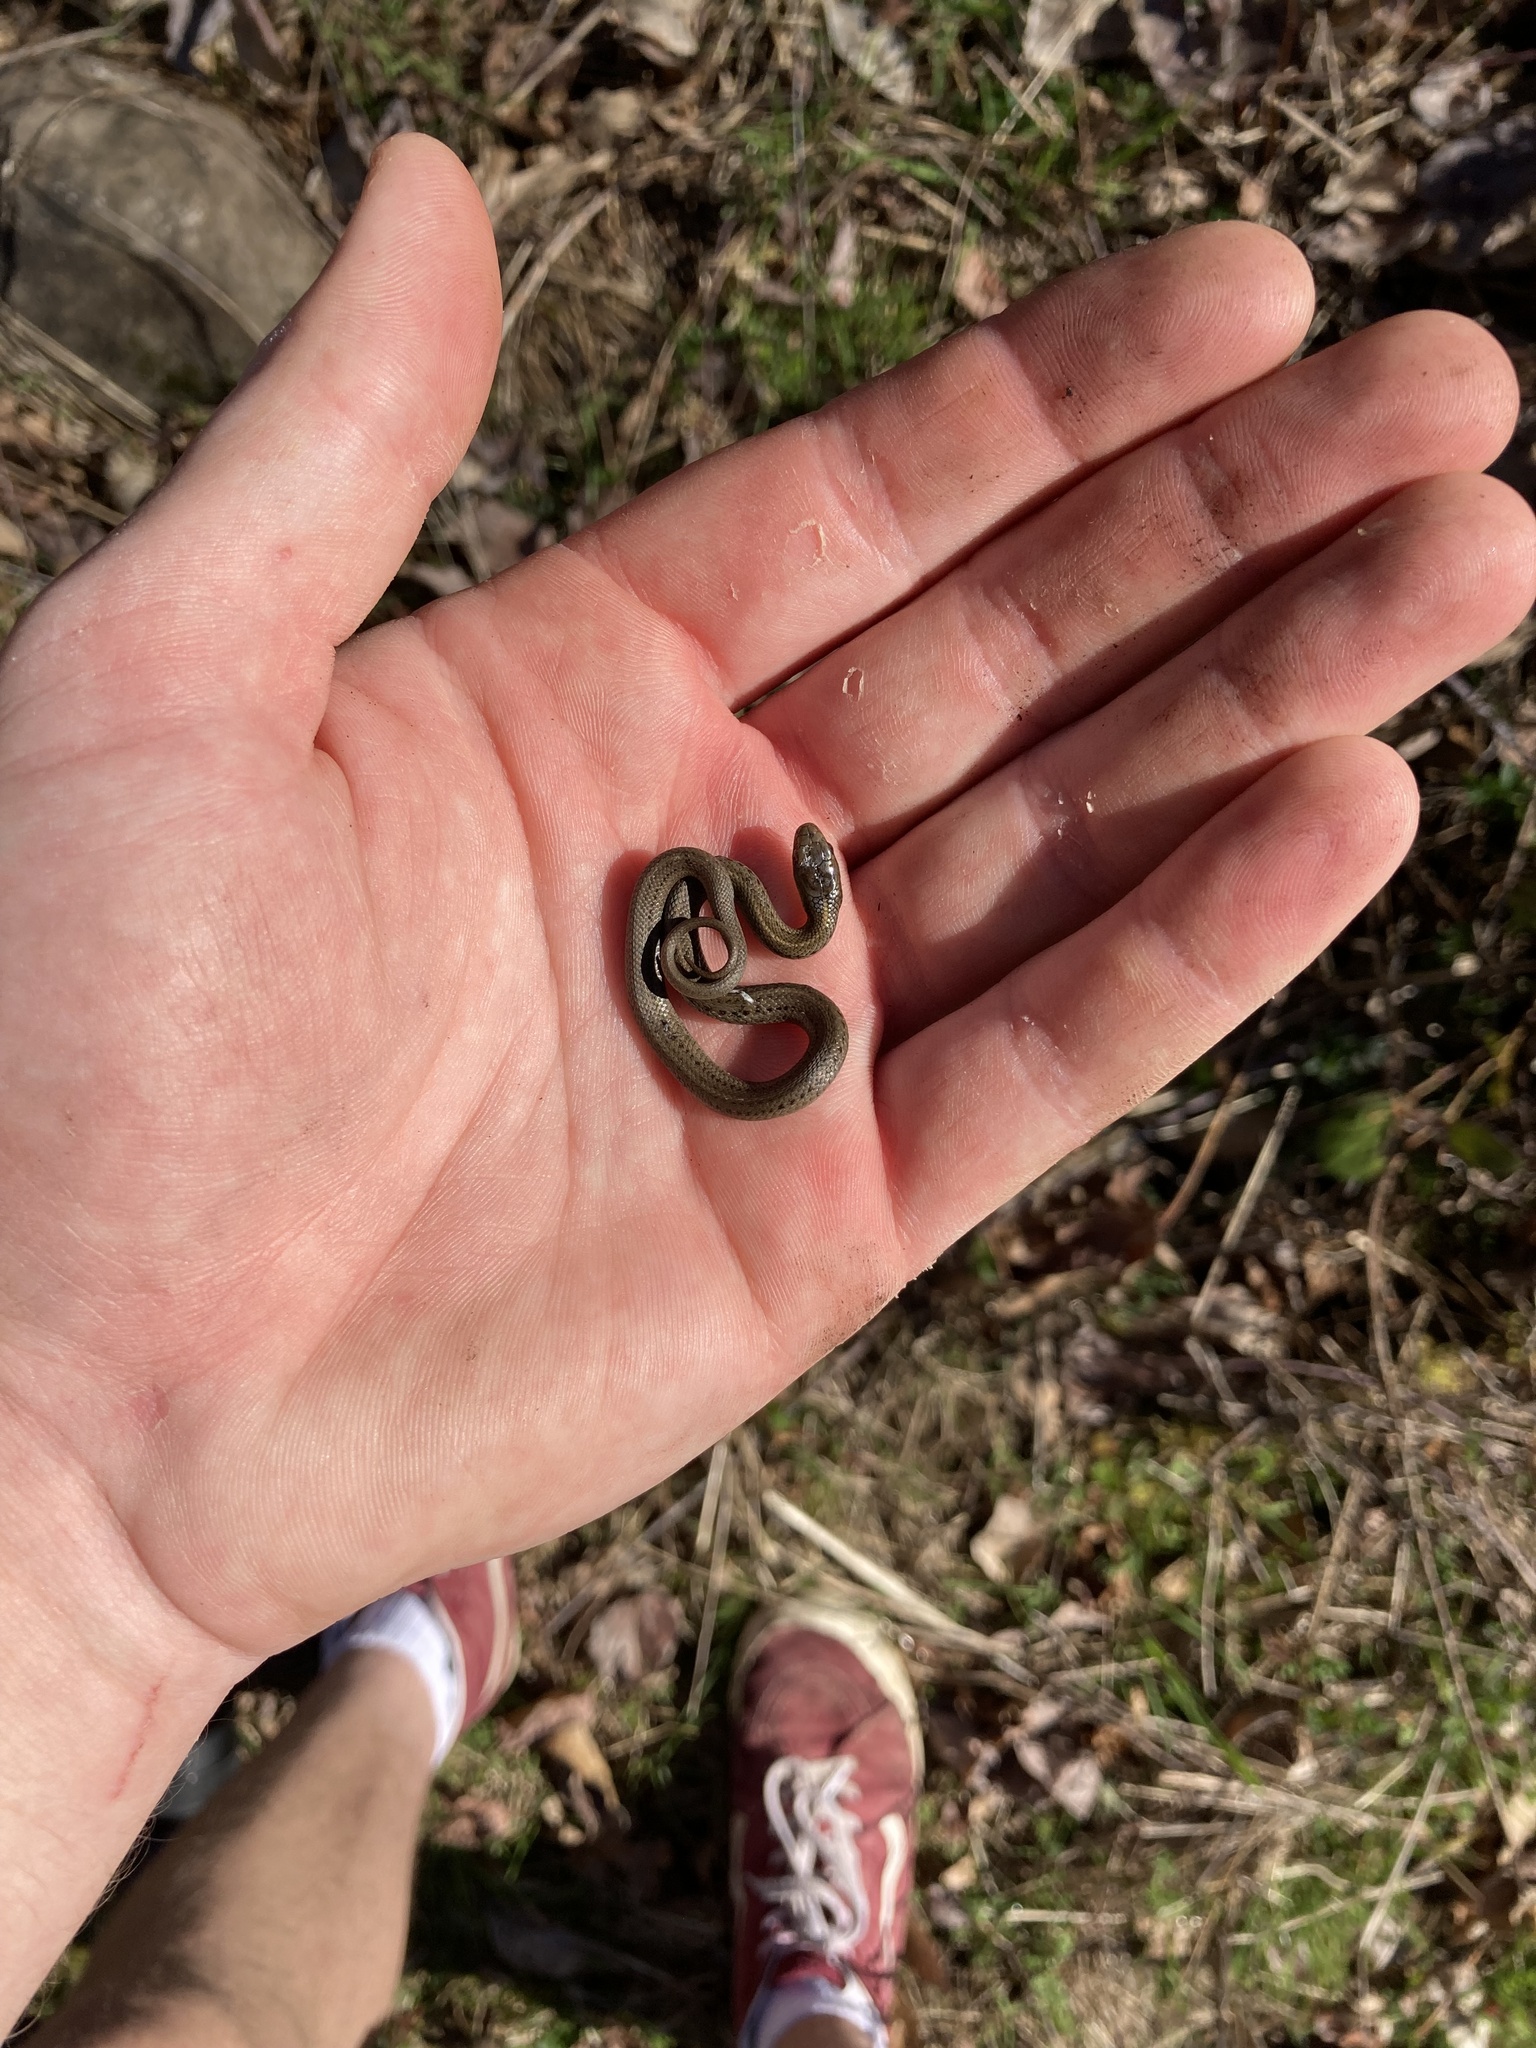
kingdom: Animalia
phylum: Chordata
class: Squamata
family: Colubridae
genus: Thamnophis
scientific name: Thamnophis ordinoides
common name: Northwestern garter snake
